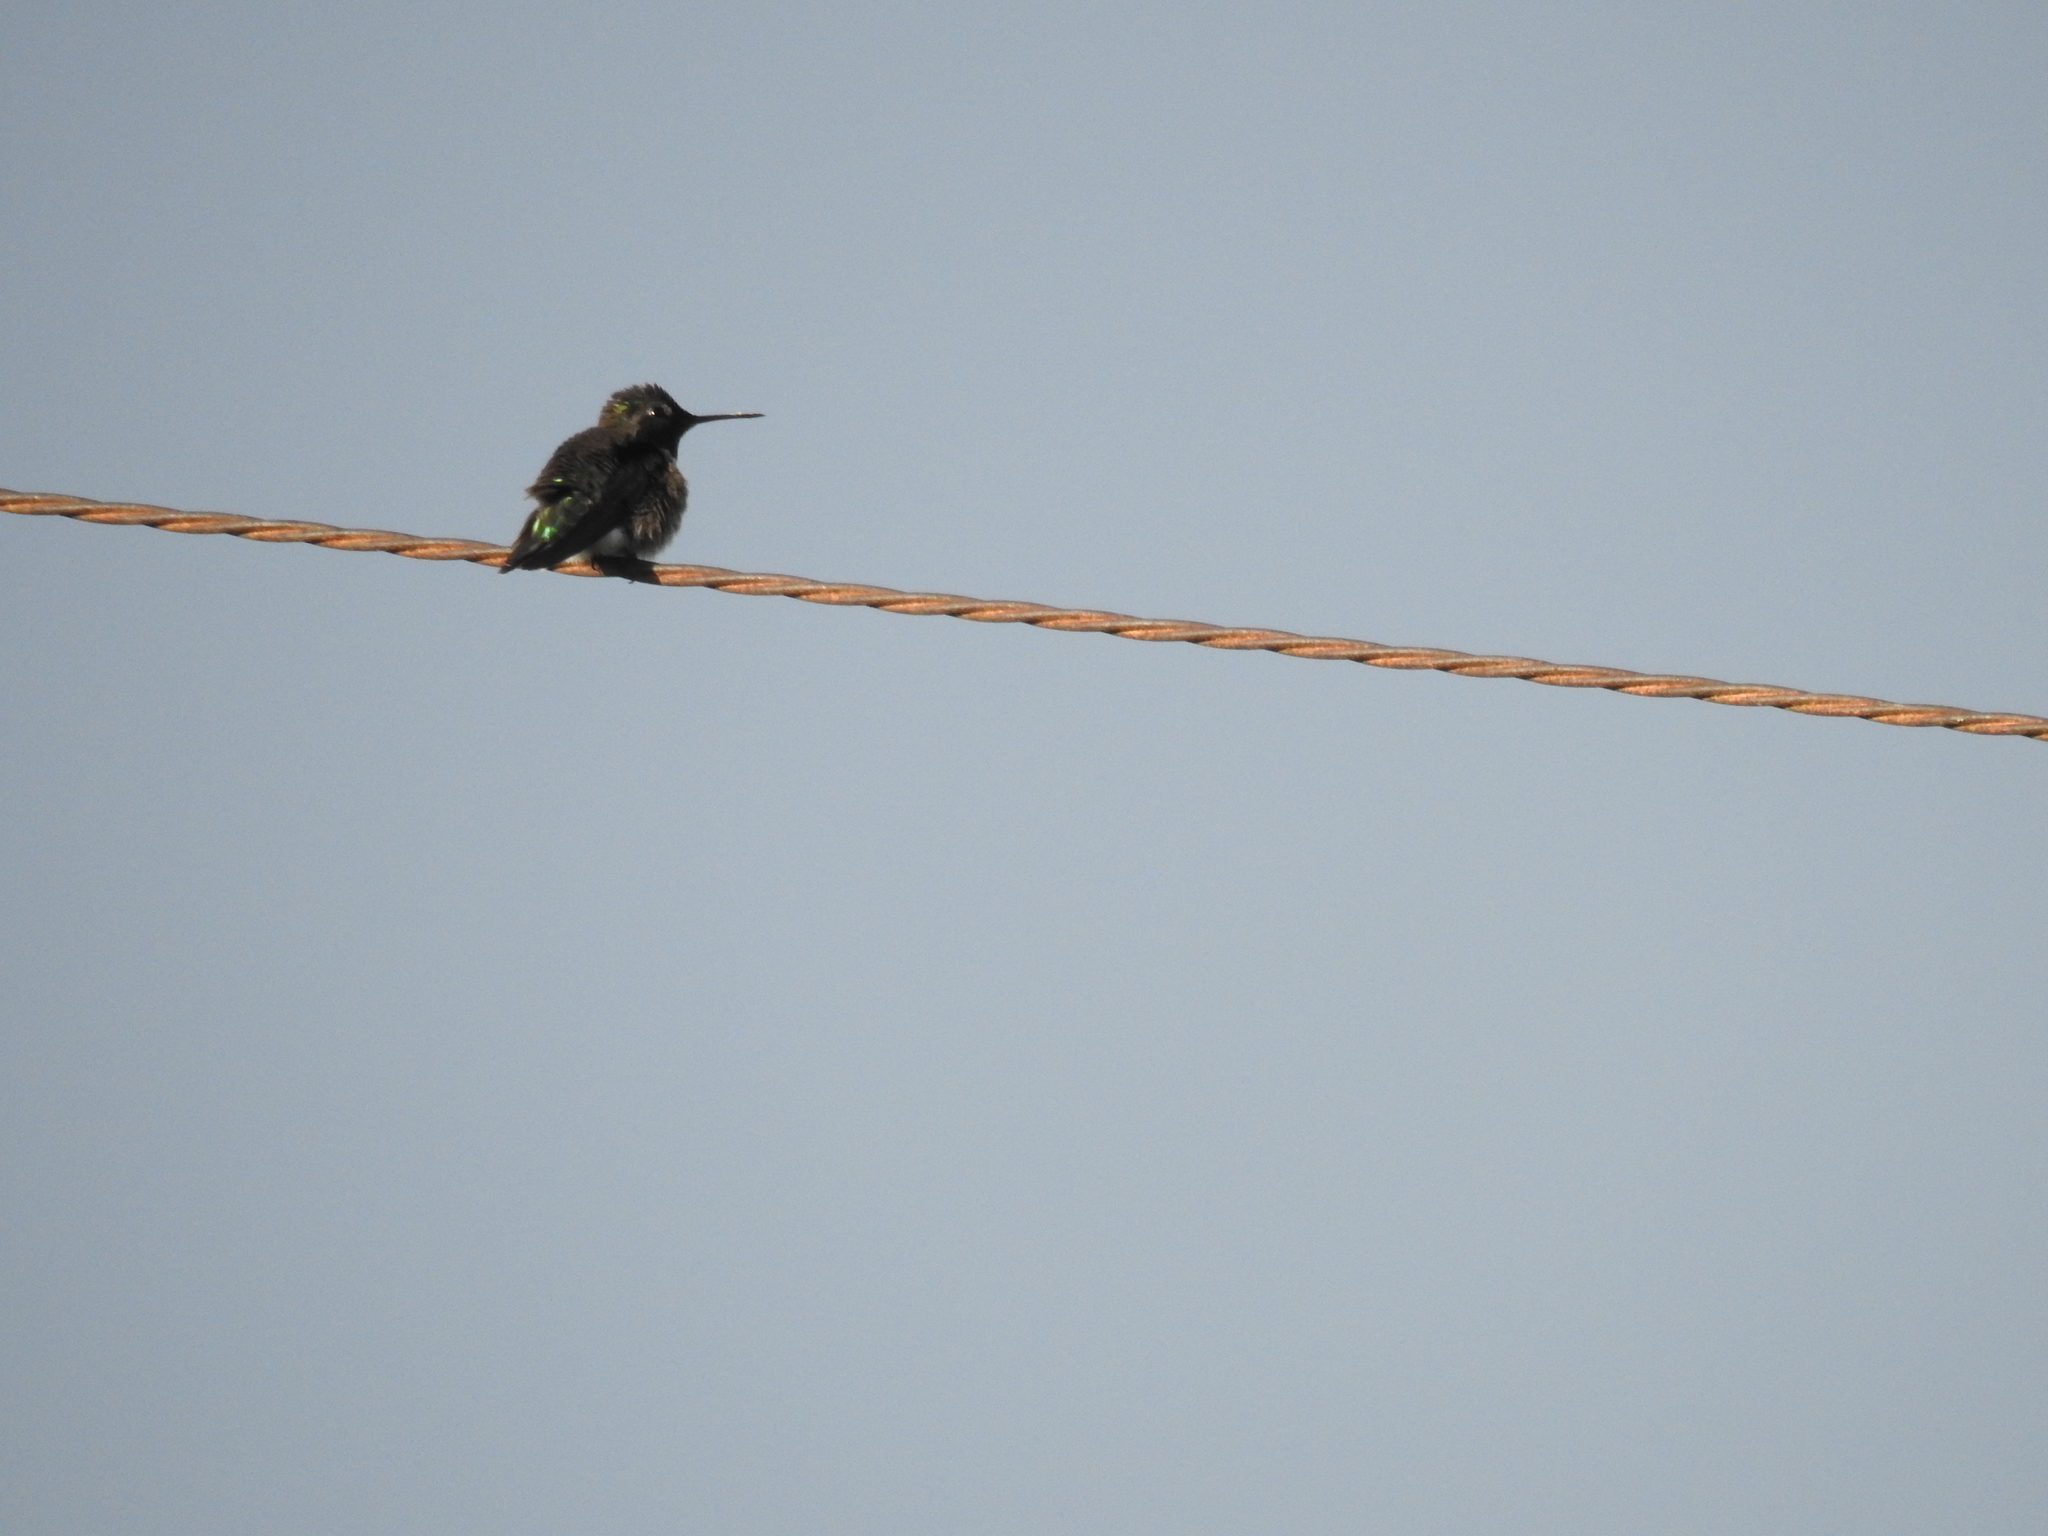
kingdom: Animalia
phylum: Chordata
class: Aves
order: Apodiformes
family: Trochilidae
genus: Calypte
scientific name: Calypte anna
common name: Anna's hummingbird
